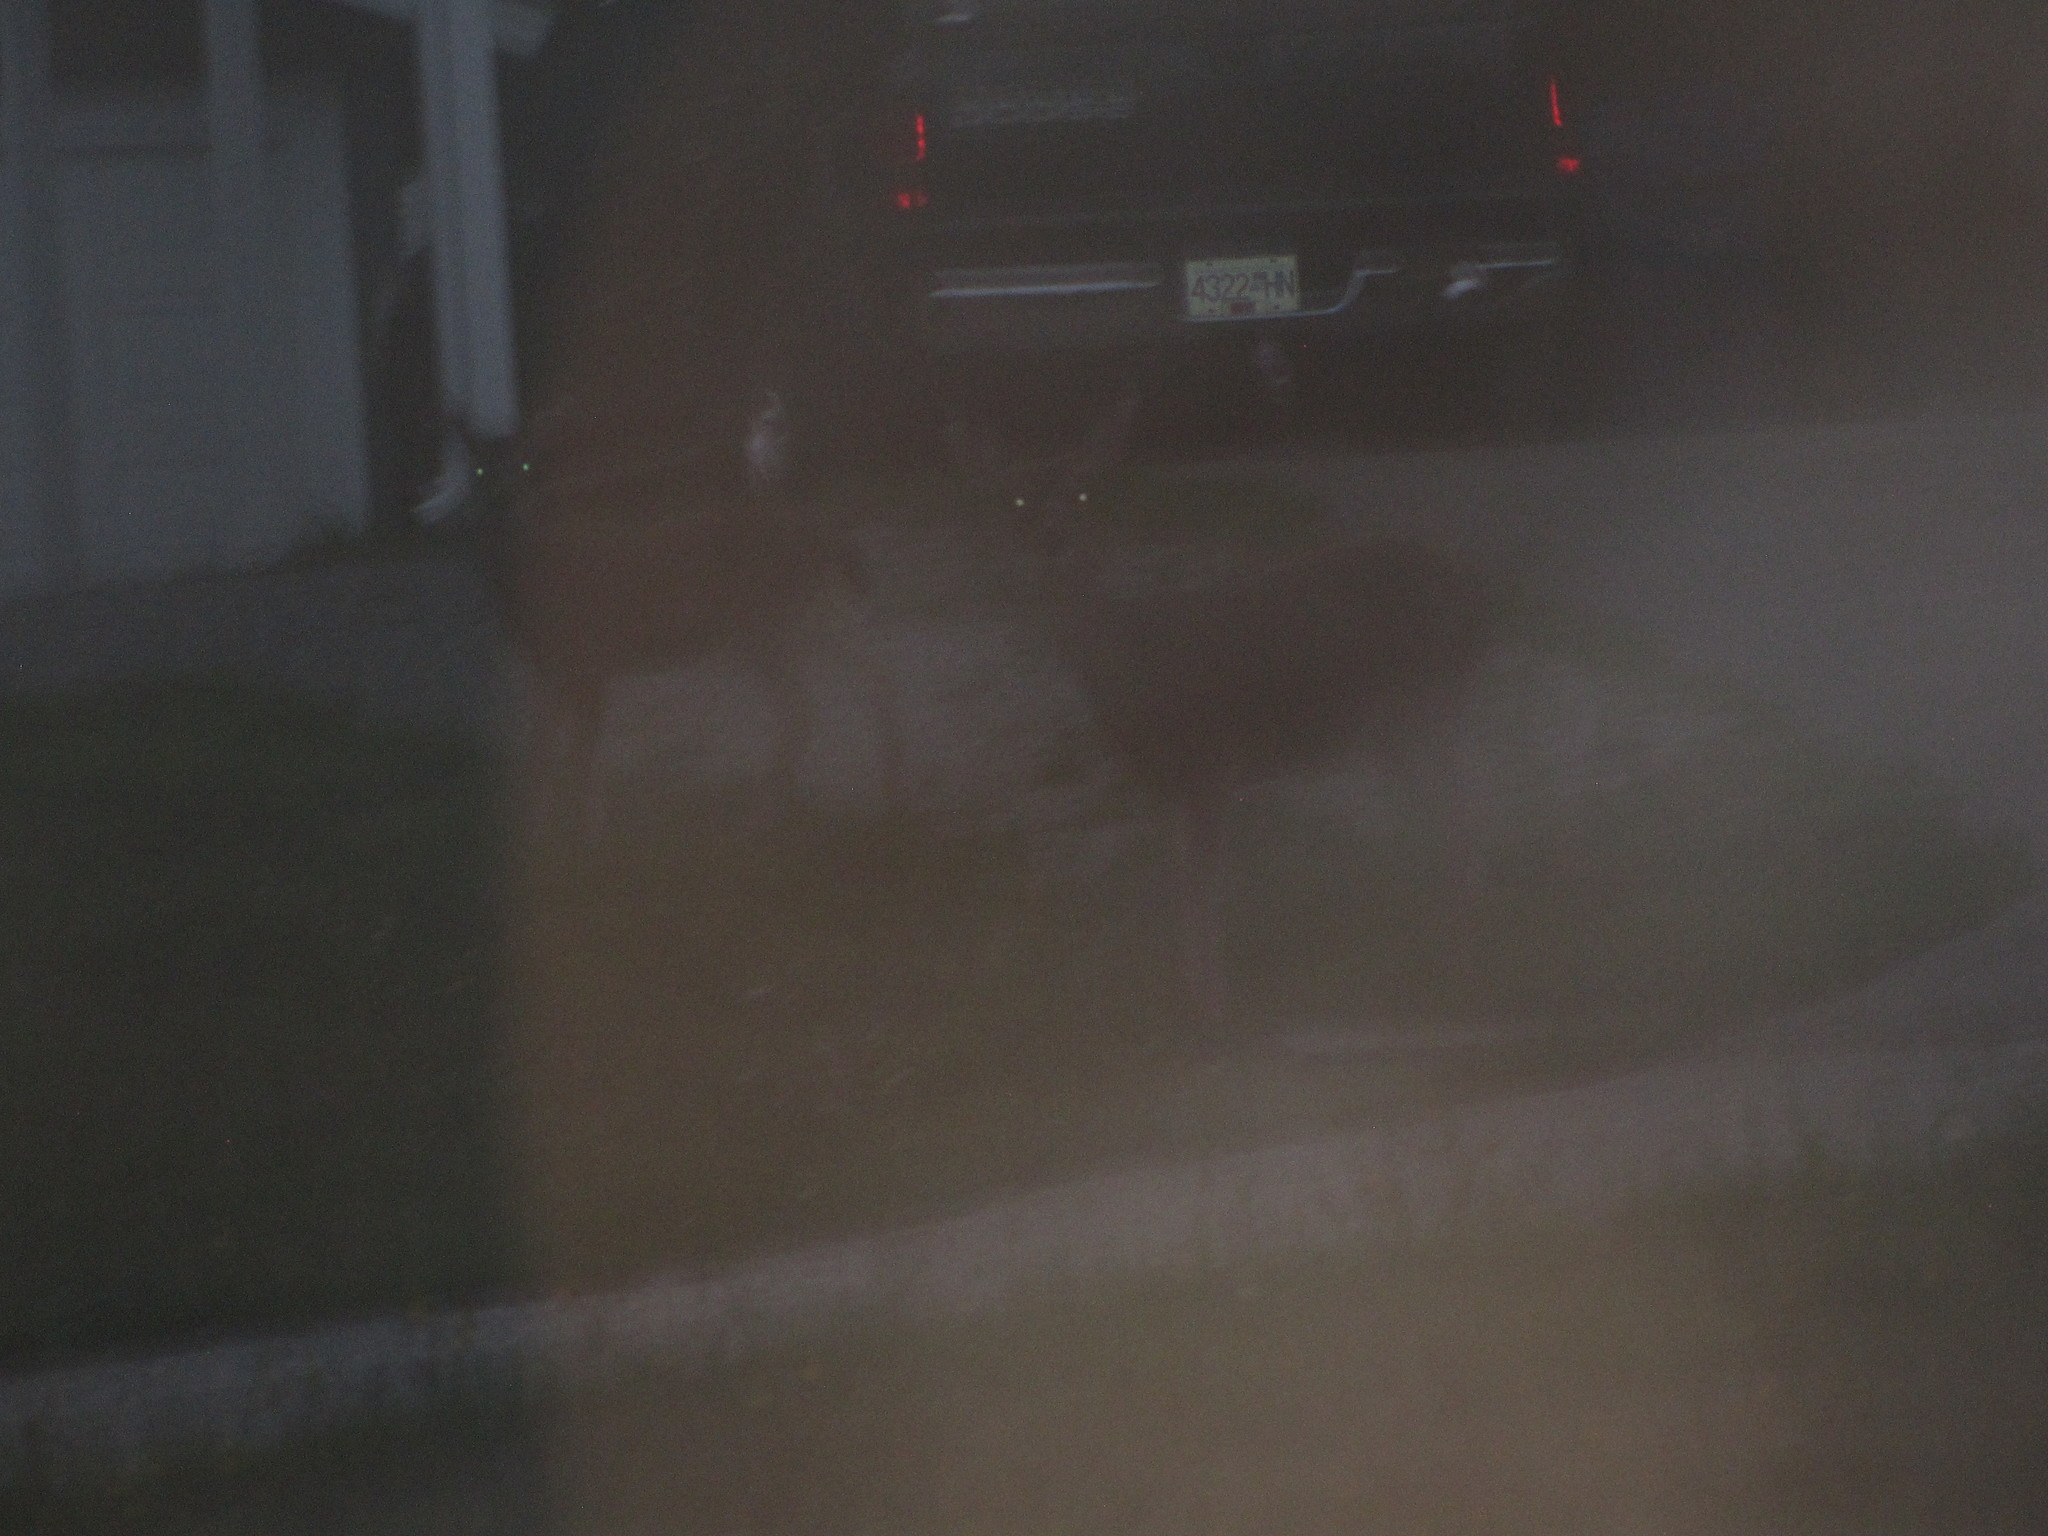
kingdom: Animalia
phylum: Chordata
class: Mammalia
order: Artiodactyla
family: Cervidae
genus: Odocoileus
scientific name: Odocoileus hemionus
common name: Mule deer
